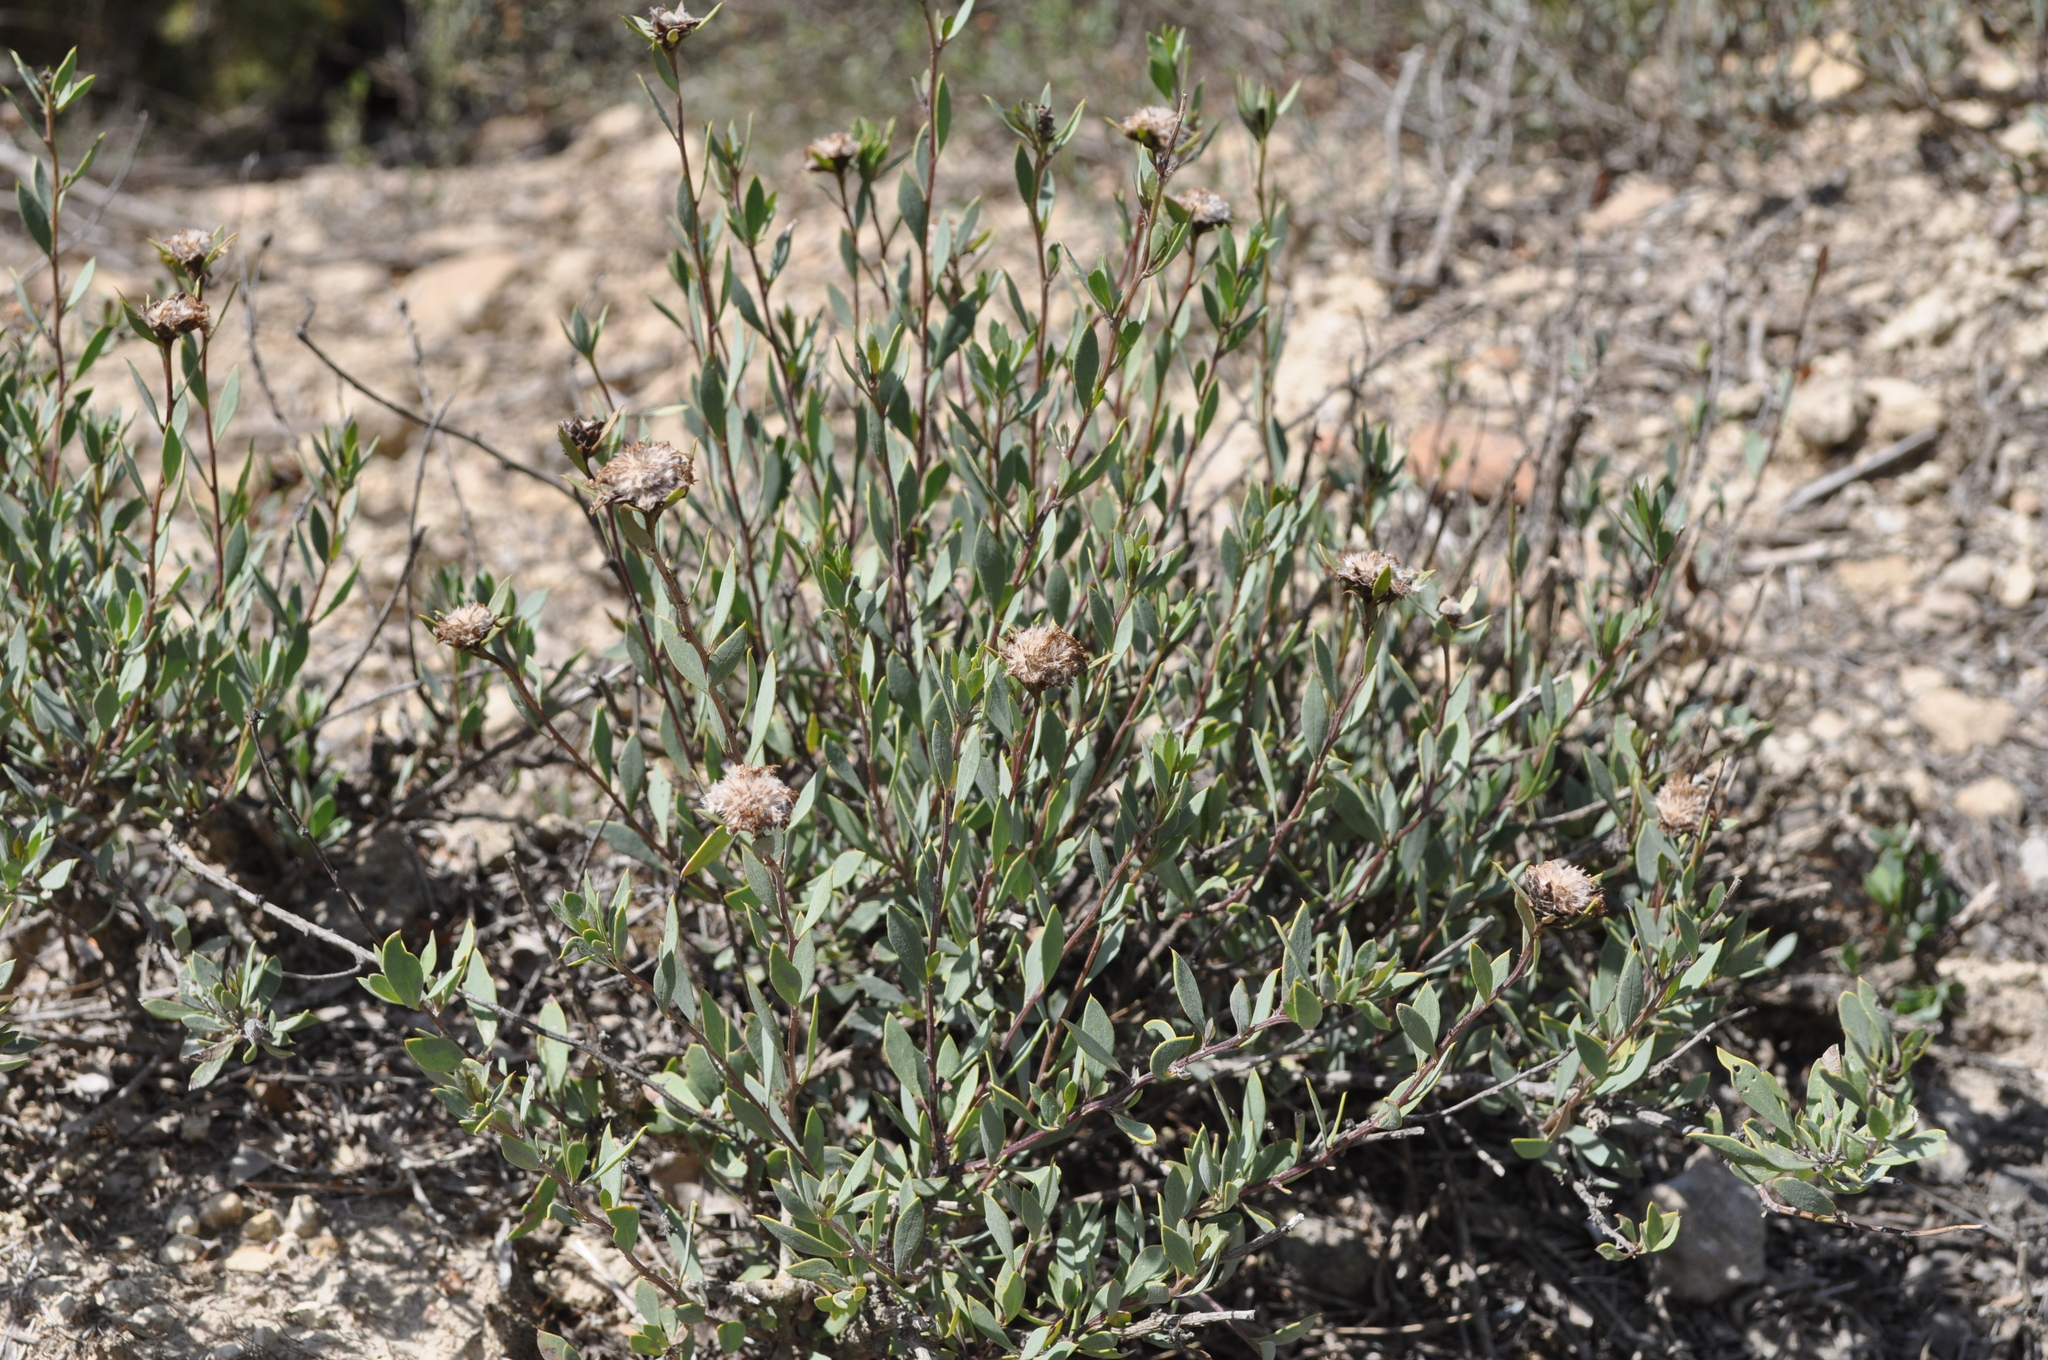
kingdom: Plantae
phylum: Tracheophyta
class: Magnoliopsida
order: Lamiales
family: Plantaginaceae
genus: Globularia
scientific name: Globularia alypum
